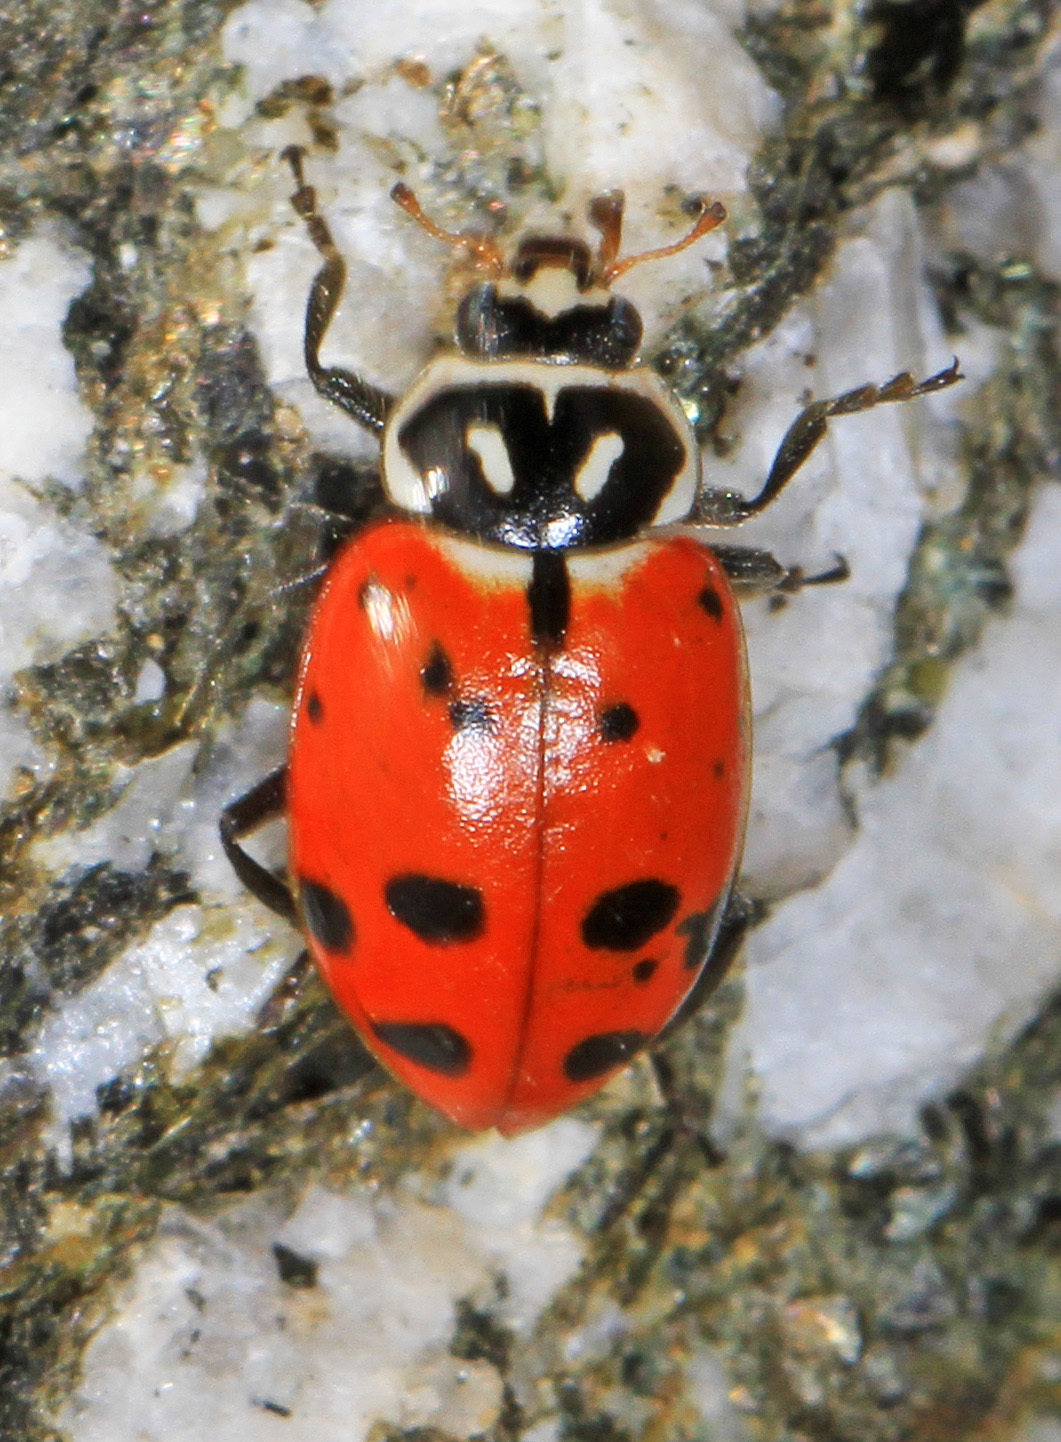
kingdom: Animalia
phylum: Arthropoda
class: Insecta
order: Coleoptera
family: Coccinellidae
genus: Hippodamia
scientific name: Hippodamia convergens
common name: Convergent lady beetle
